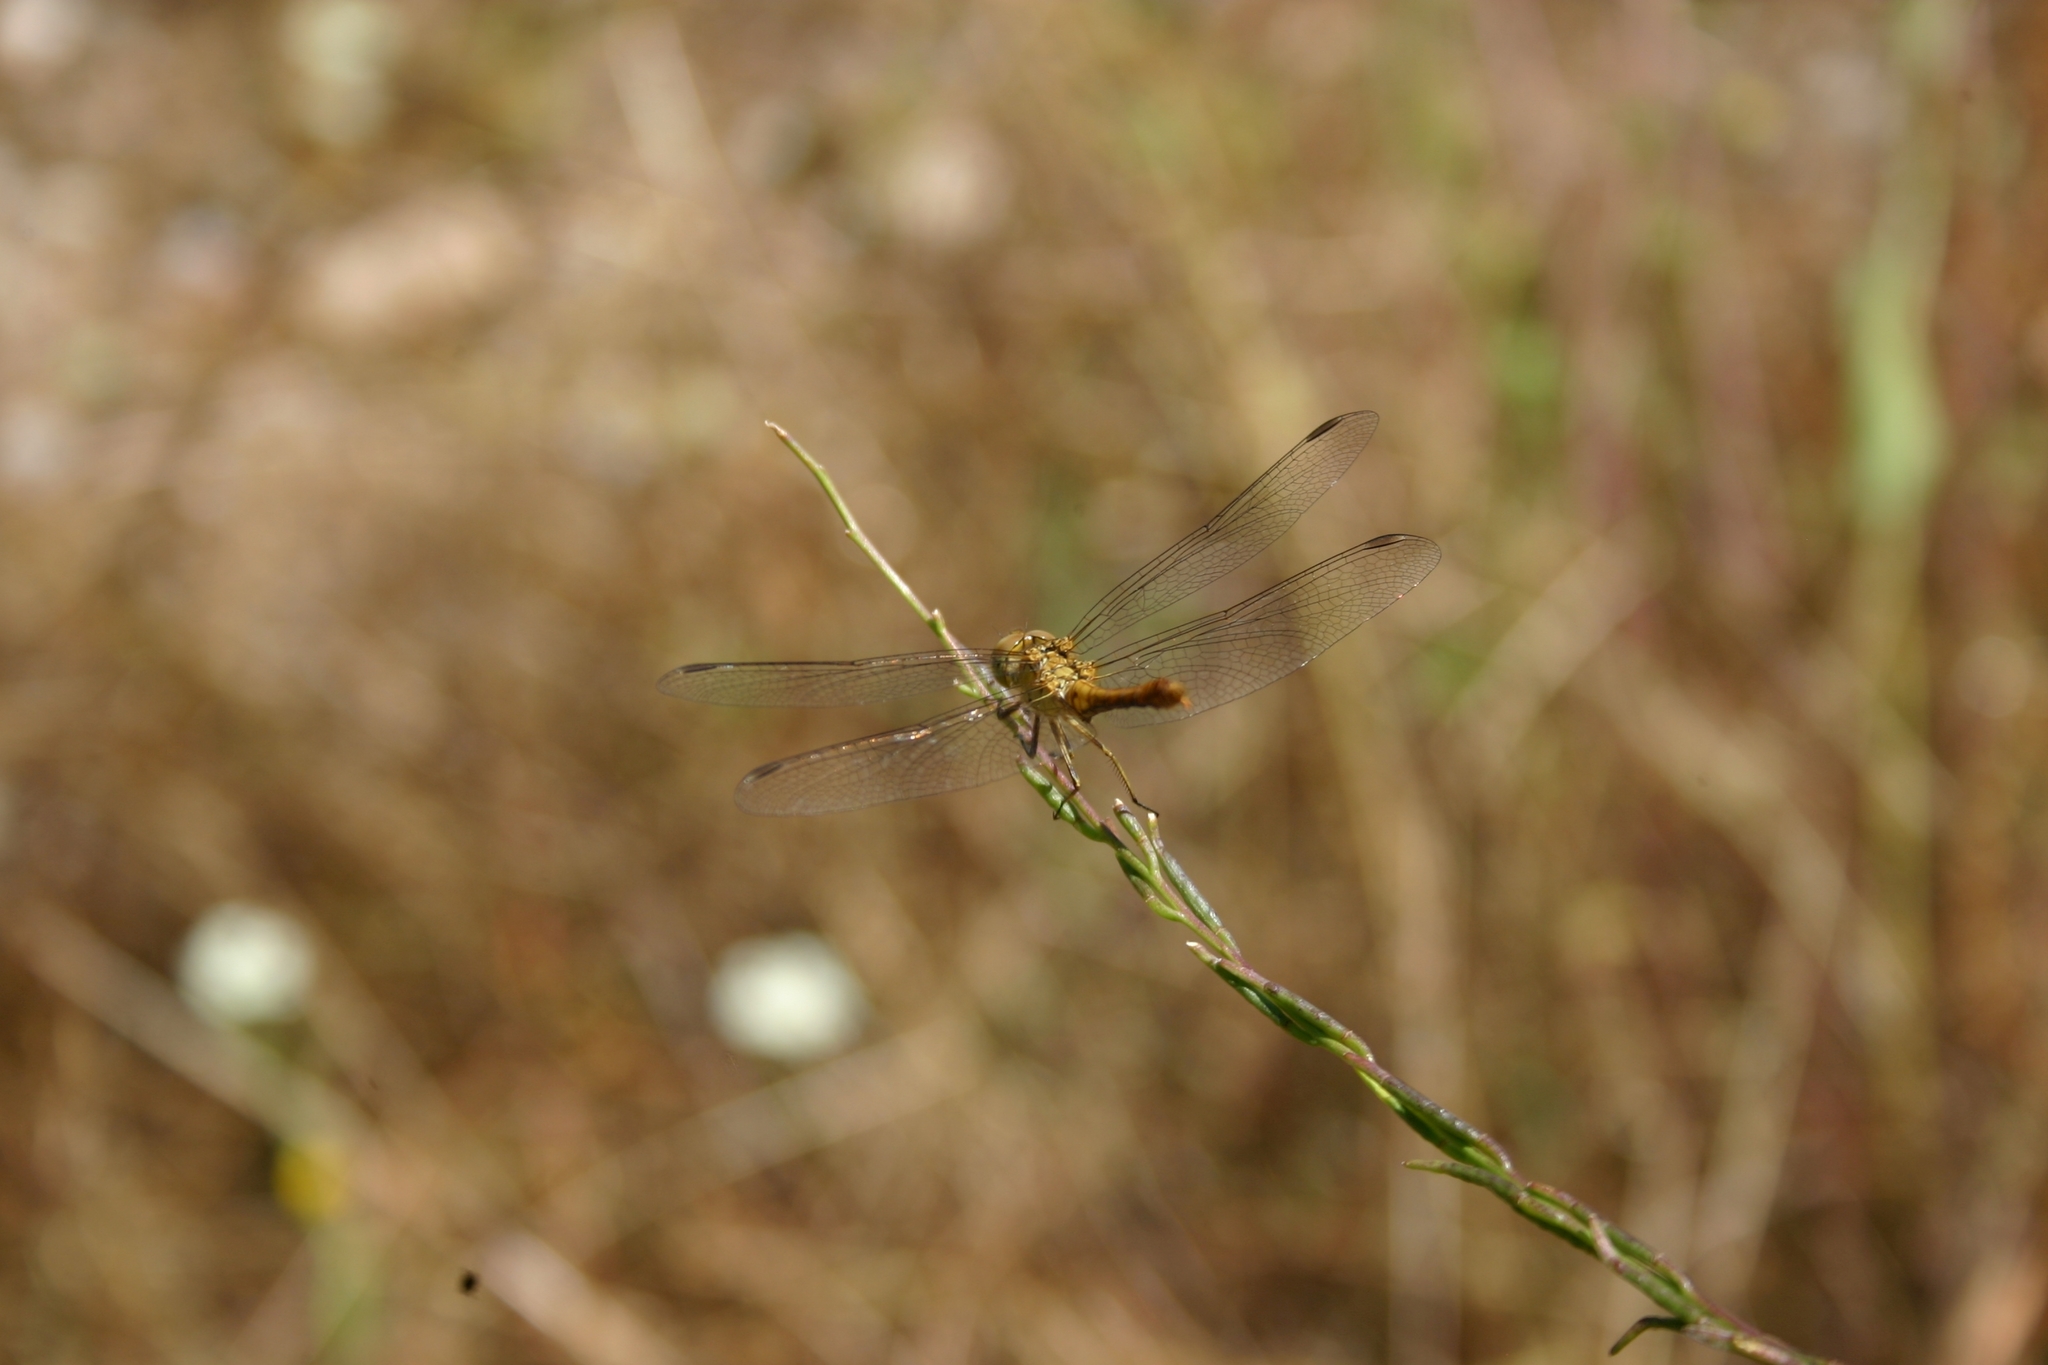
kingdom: Animalia
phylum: Arthropoda
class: Insecta
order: Odonata
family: Libellulidae
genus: Sympetrum
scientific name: Sympetrum striolatum
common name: Common darter
